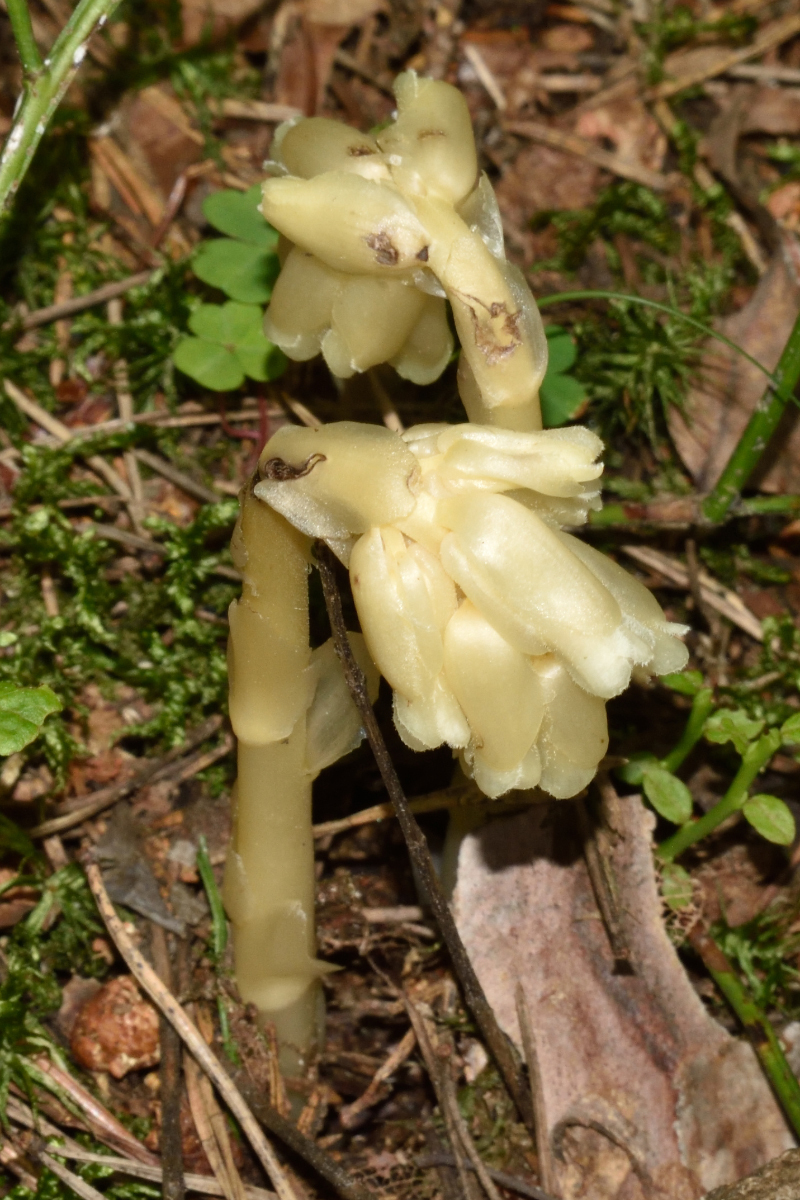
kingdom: Plantae
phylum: Tracheophyta
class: Magnoliopsida
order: Ericales
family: Ericaceae
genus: Hypopitys
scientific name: Hypopitys monotropa
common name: Yellow bird's-nest
